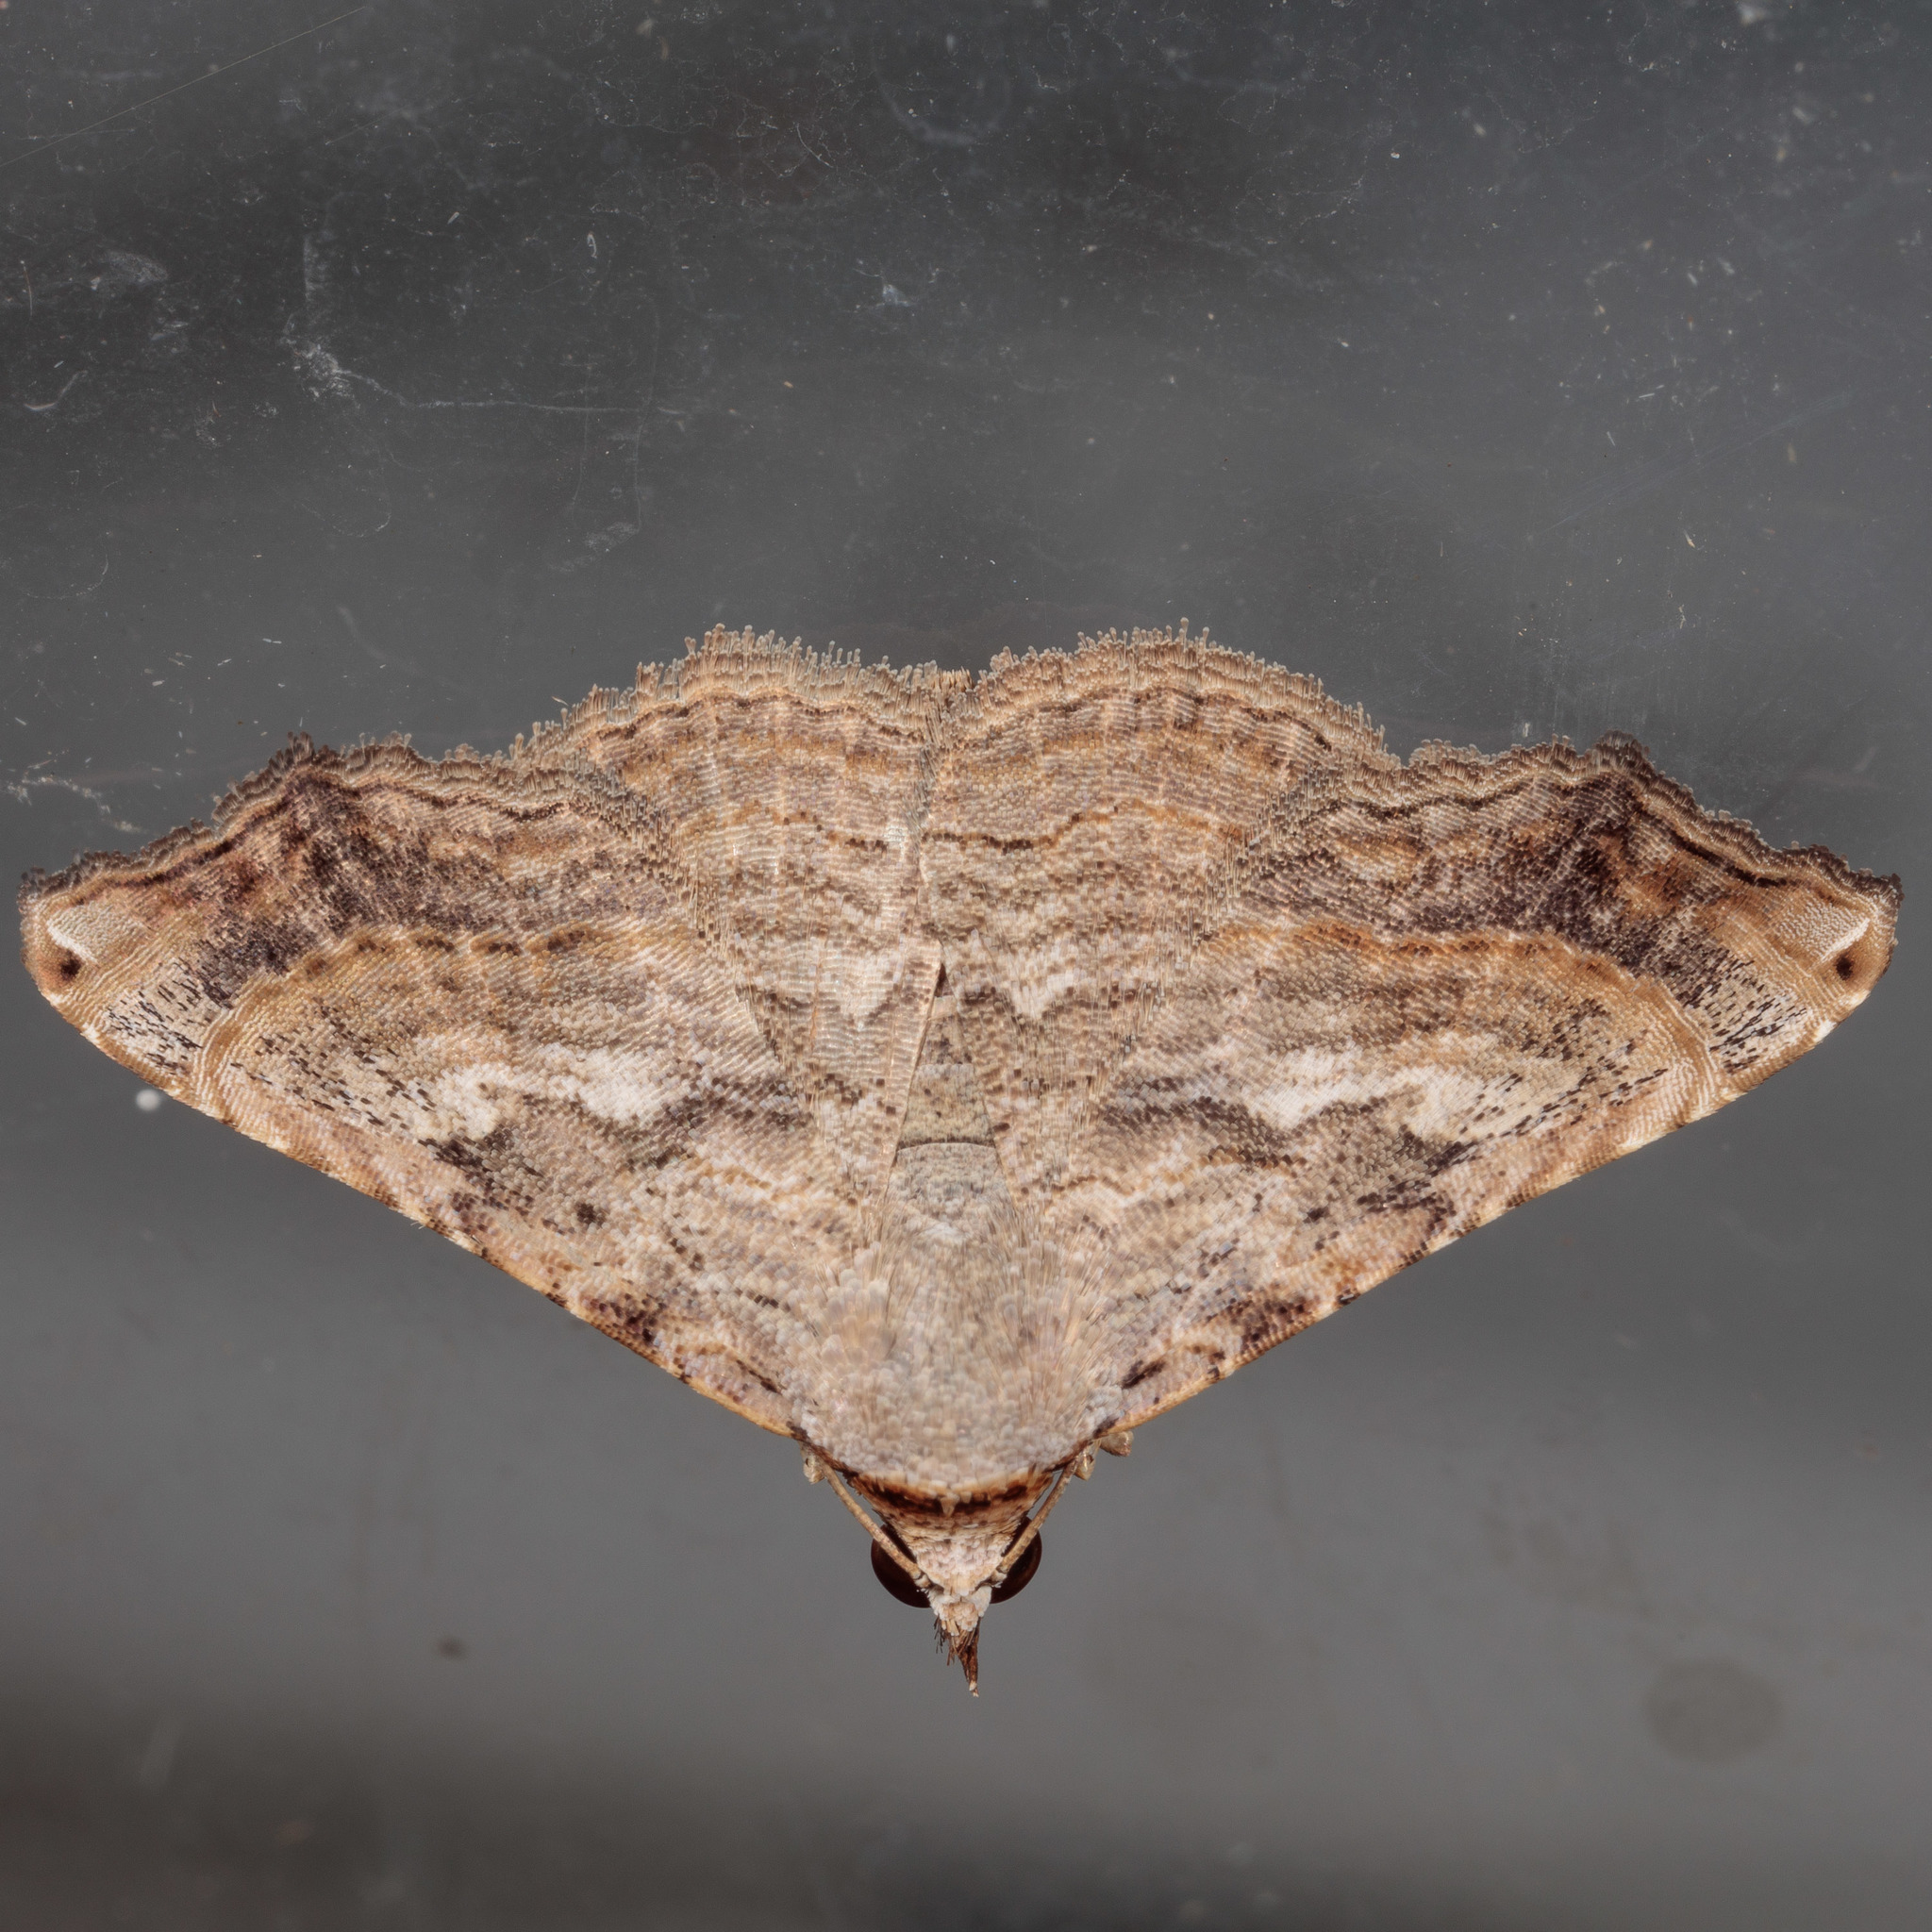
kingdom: Animalia
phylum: Arthropoda
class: Insecta
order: Lepidoptera
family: Erebidae
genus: Tyrissa
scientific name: Tyrissa multilinea
